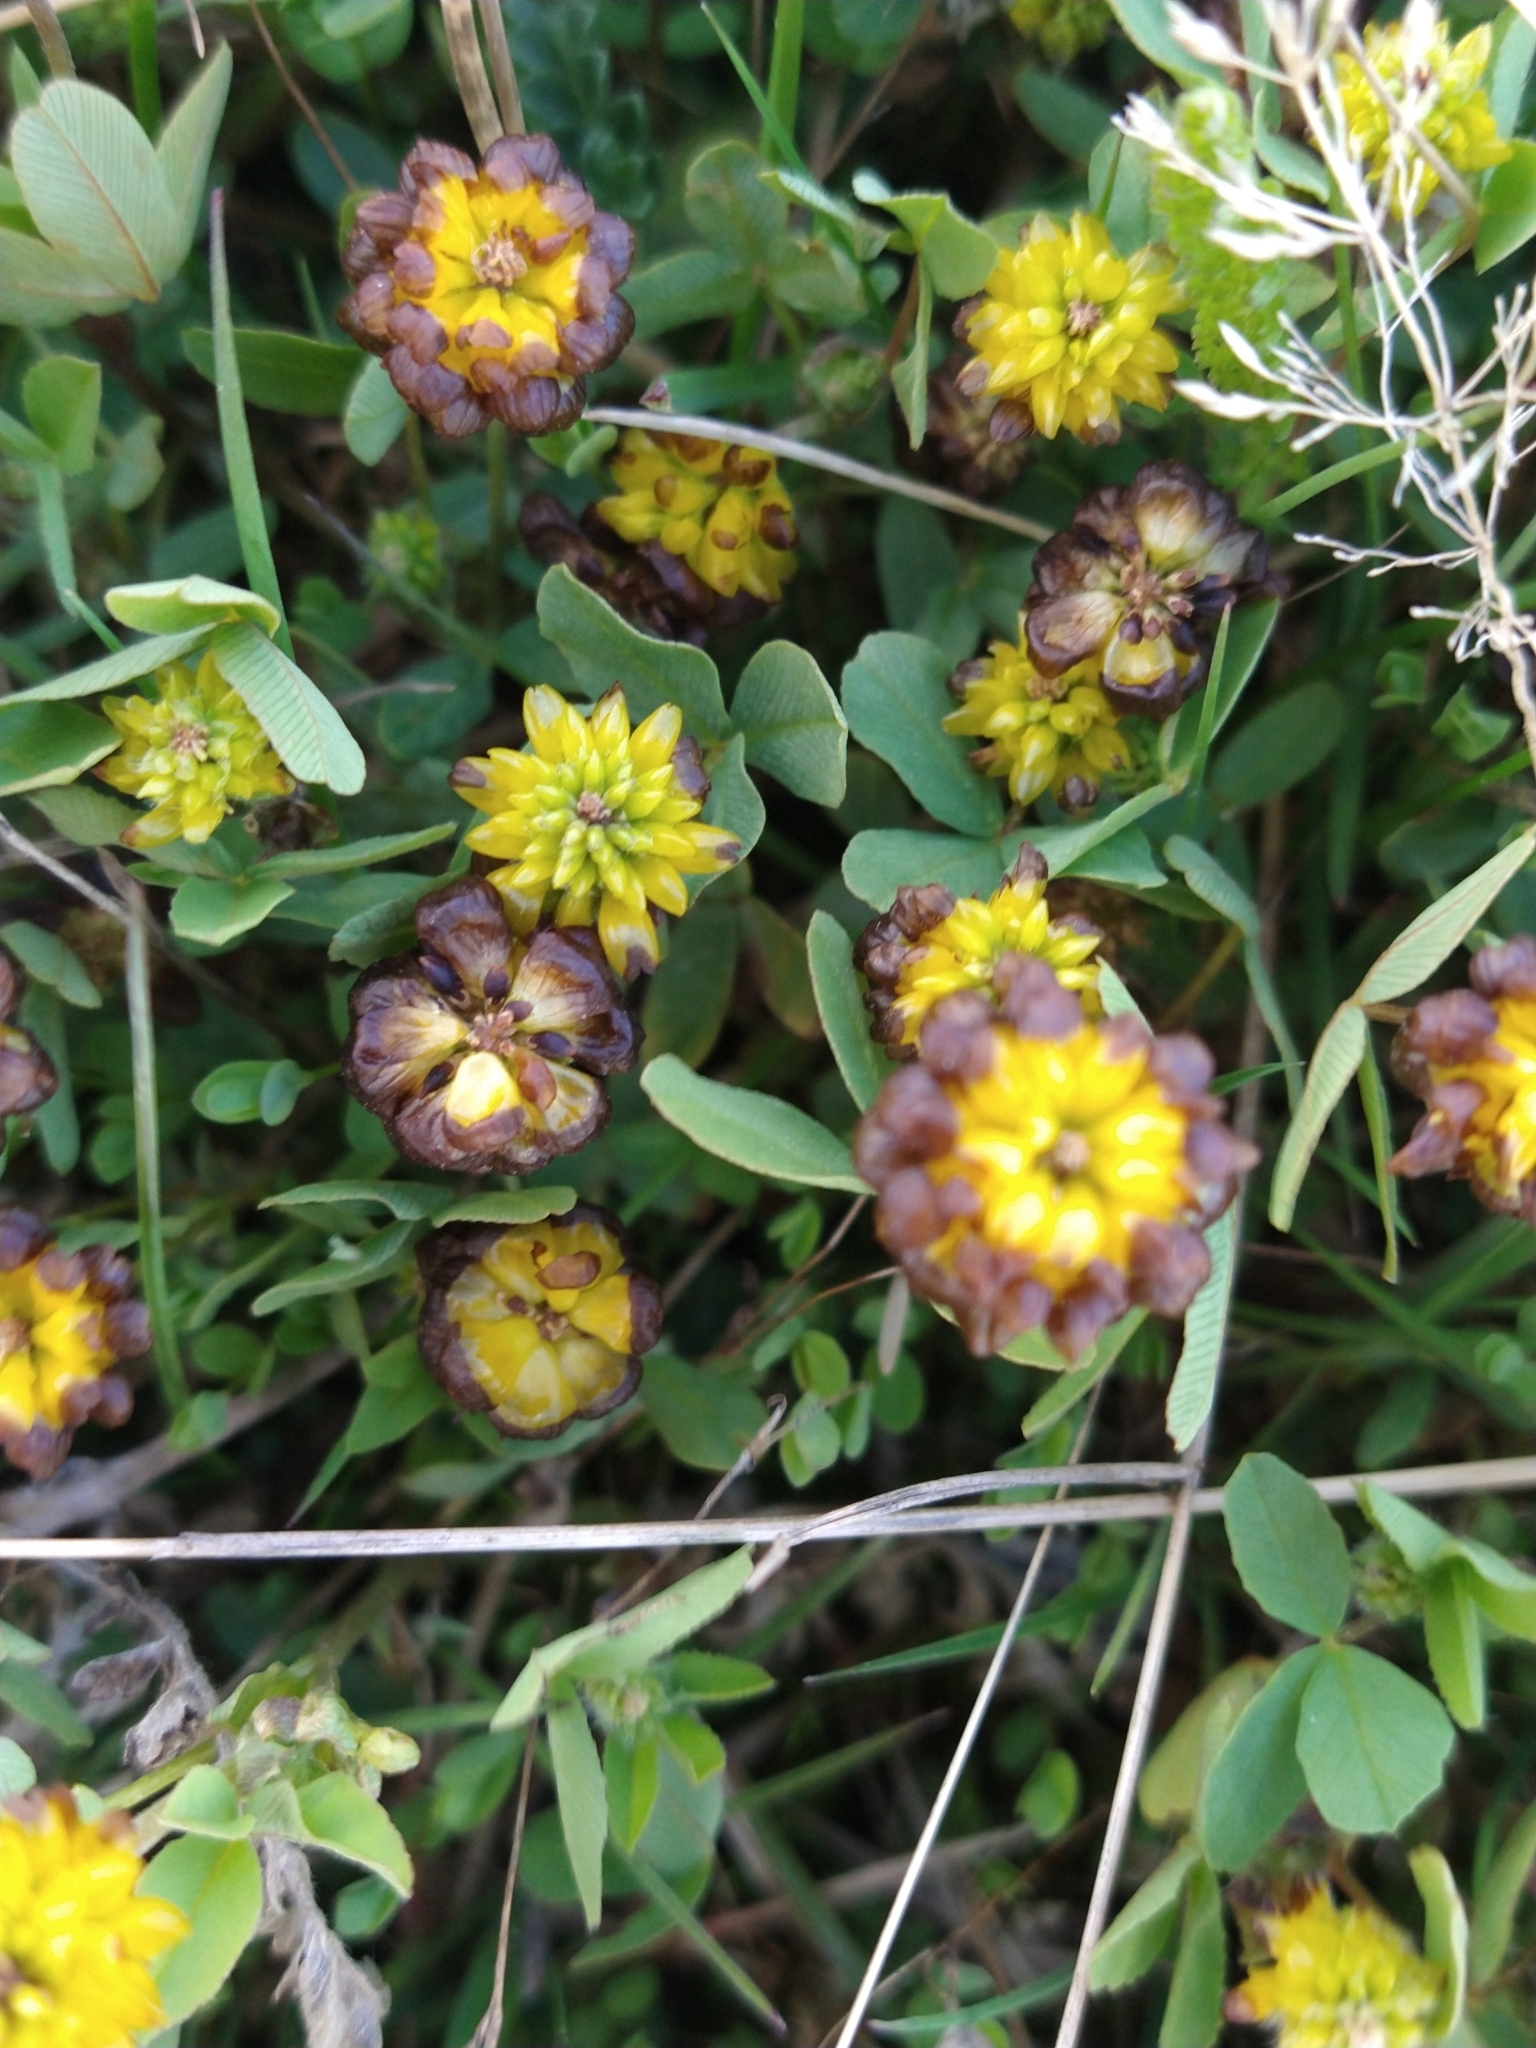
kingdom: Plantae
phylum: Tracheophyta
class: Magnoliopsida
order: Fabales
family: Fabaceae
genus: Trifolium
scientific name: Trifolium spadiceum
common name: Brown moor clover
